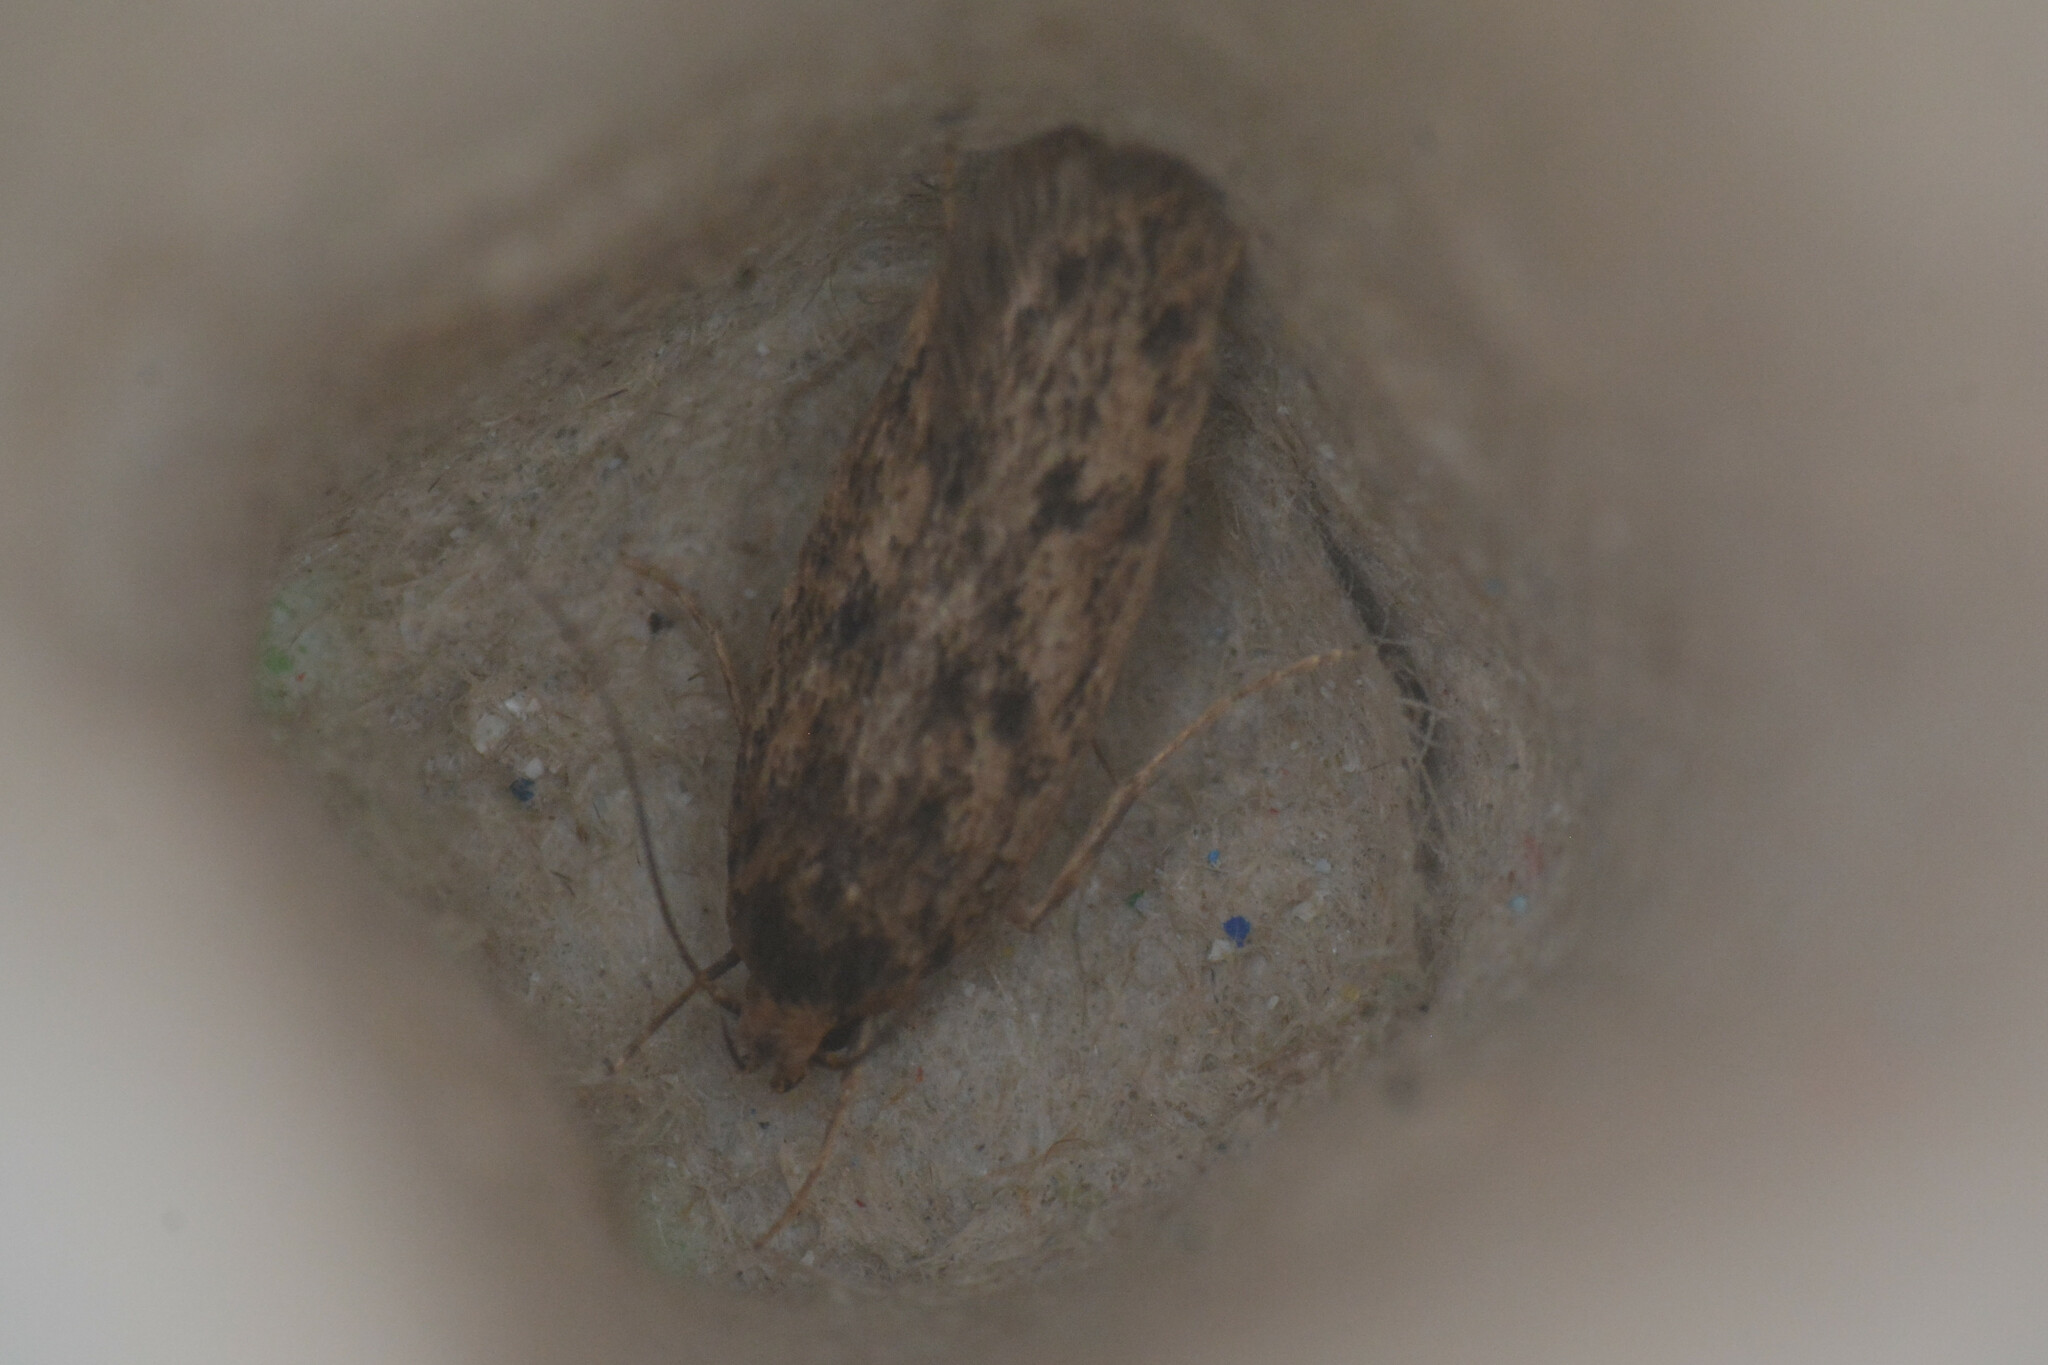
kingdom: Animalia
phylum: Arthropoda
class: Insecta
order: Lepidoptera
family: Oecophoridae
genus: Hofmannophila
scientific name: Hofmannophila pseudospretella
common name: Brown house moth
